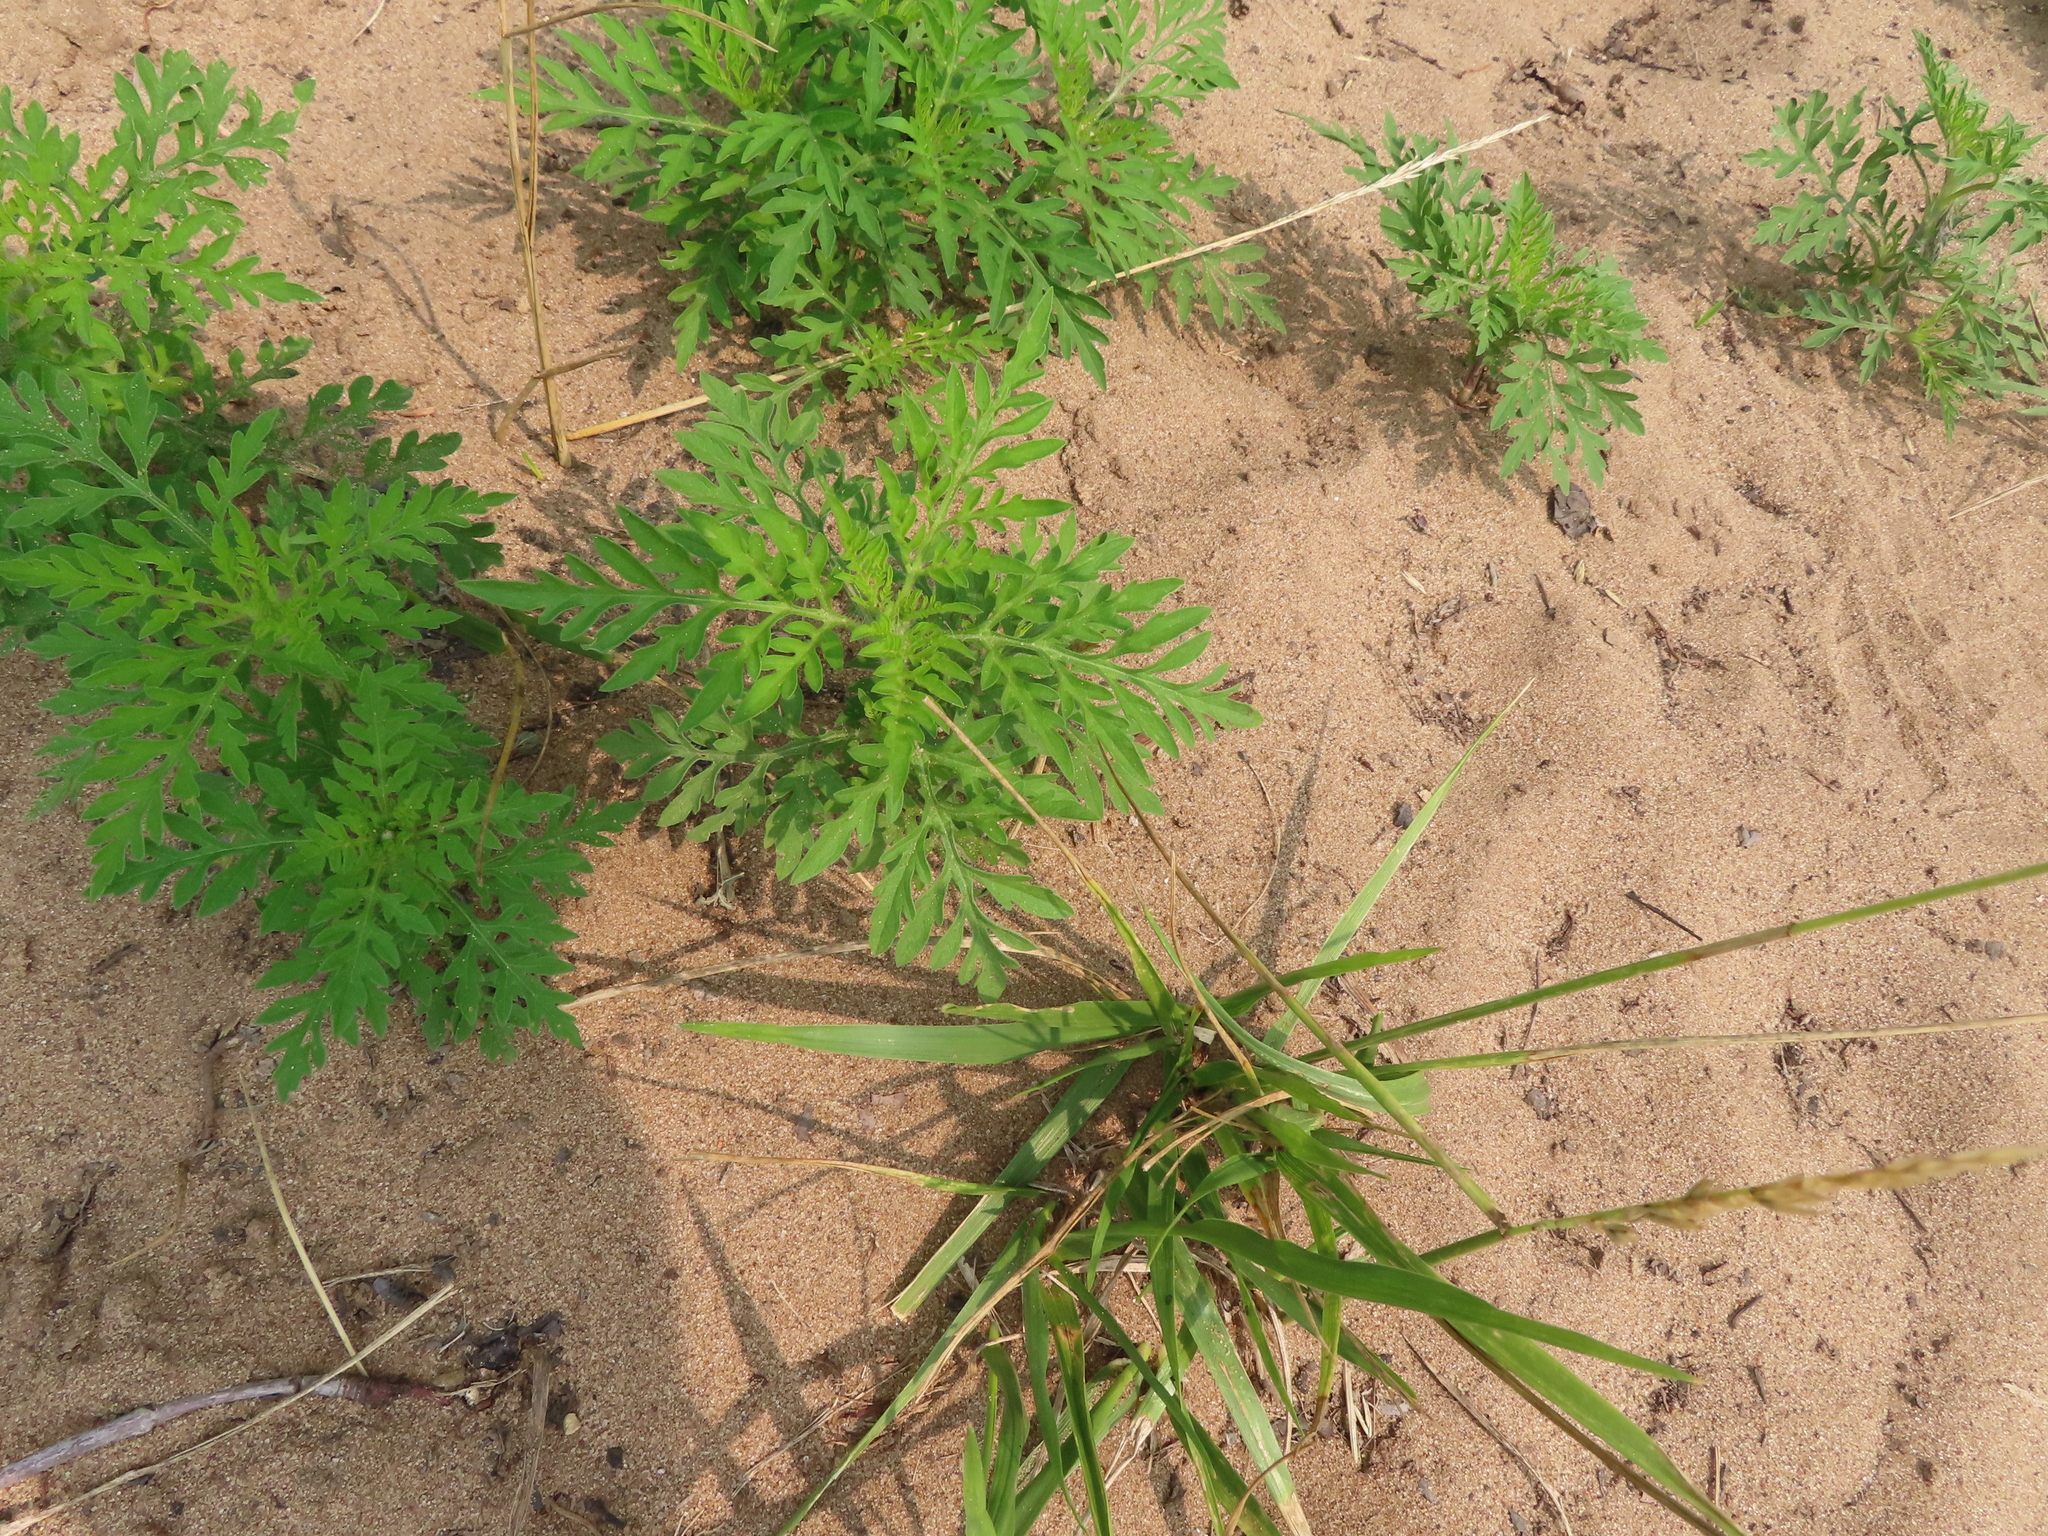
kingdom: Plantae
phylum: Tracheophyta
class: Magnoliopsida
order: Asterales
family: Asteraceae
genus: Ambrosia
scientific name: Ambrosia artemisiifolia
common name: Annual ragweed
